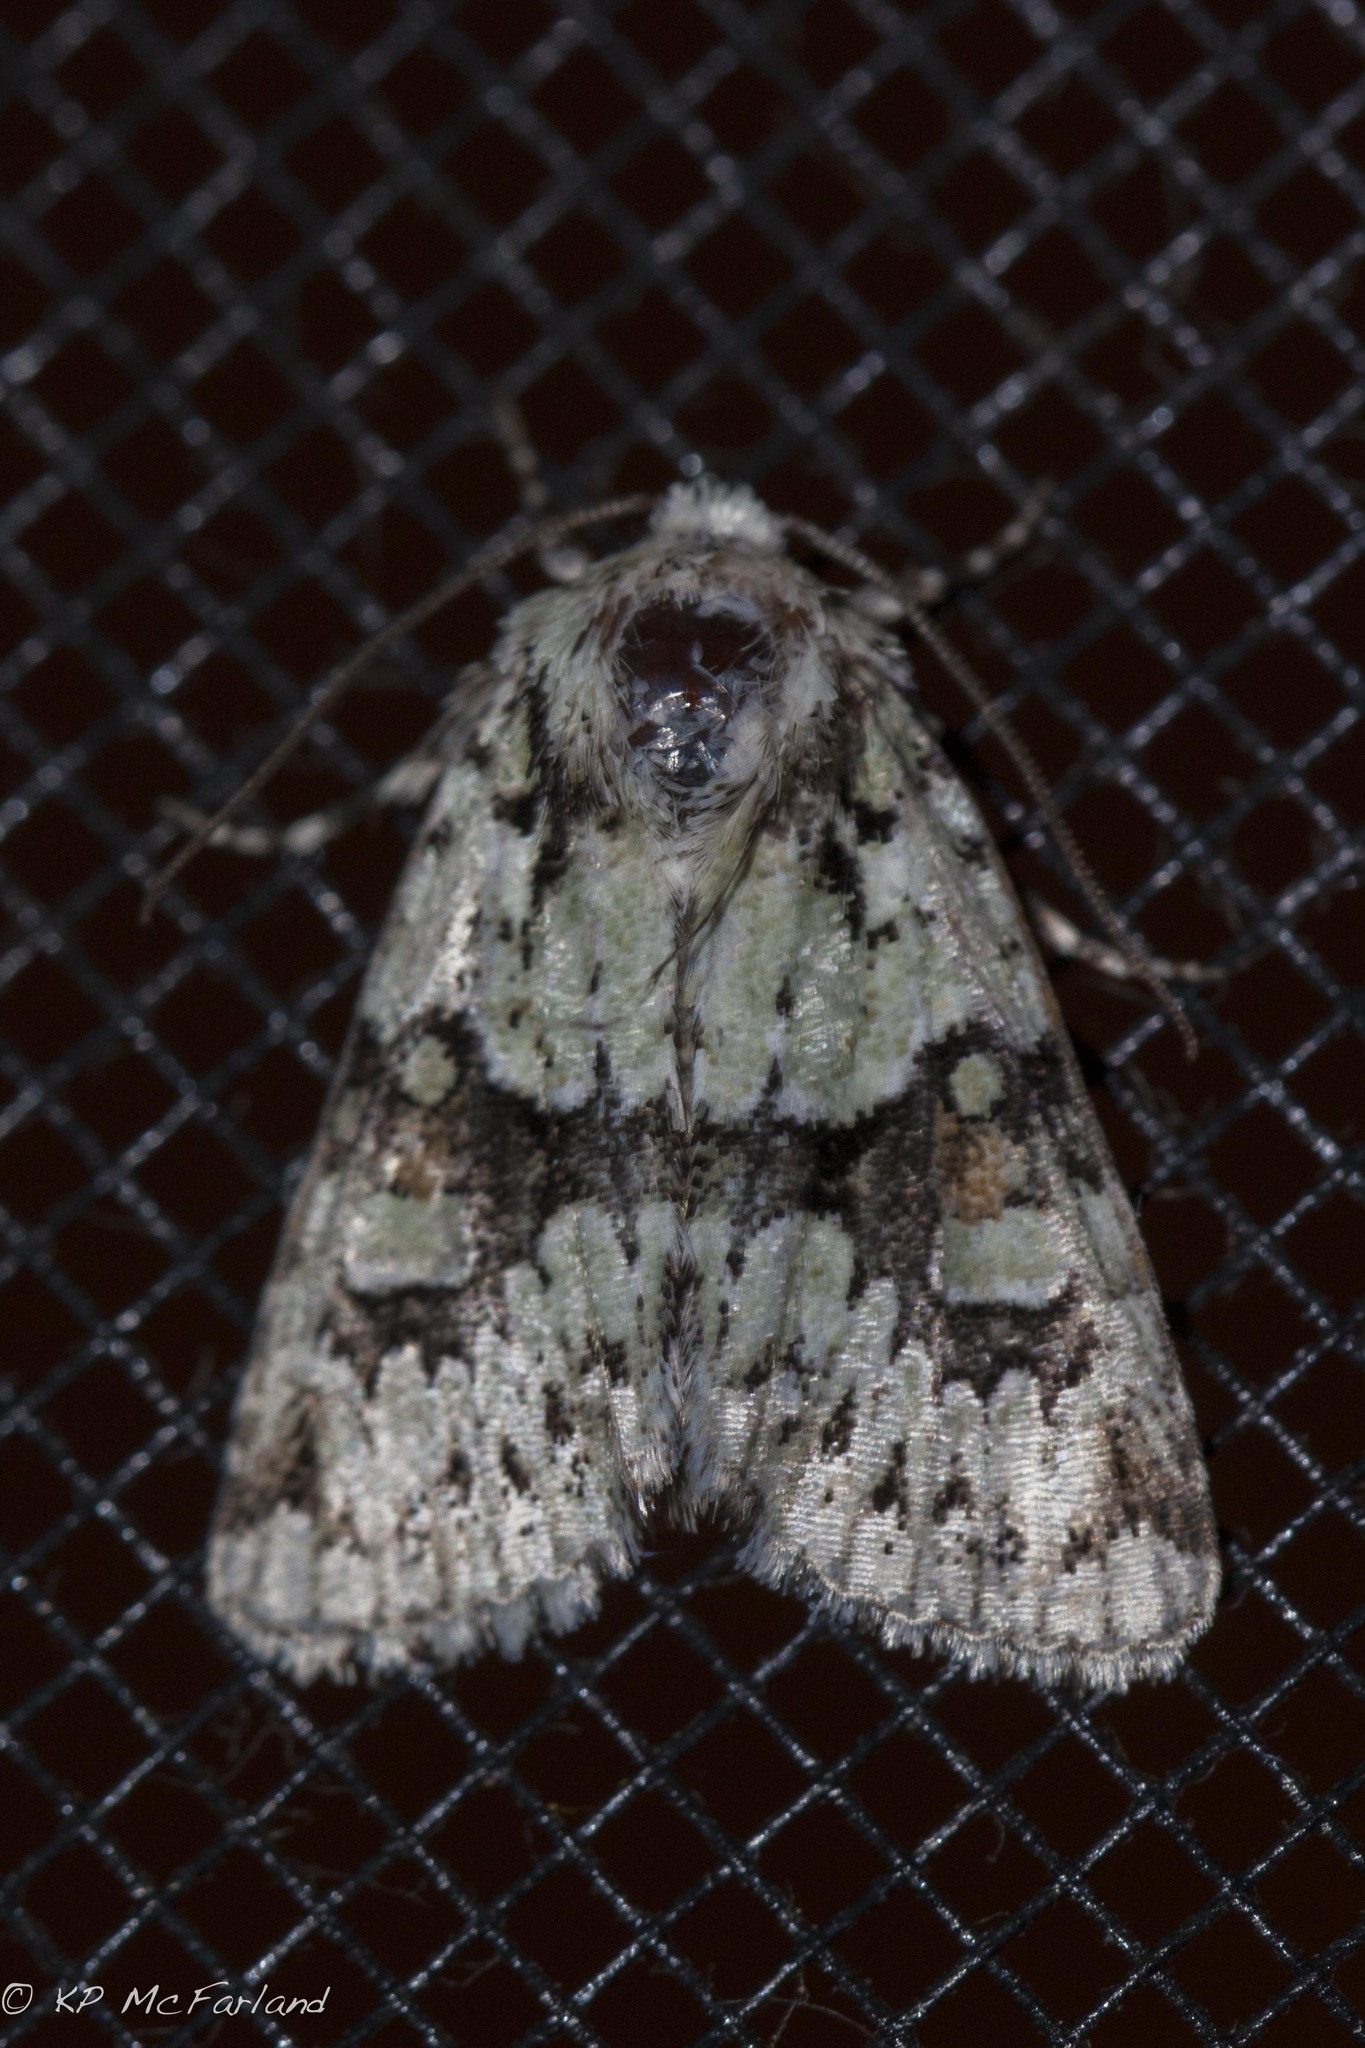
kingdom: Animalia
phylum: Arthropoda
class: Insecta
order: Lepidoptera
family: Noctuidae
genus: Lacinipolia
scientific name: Lacinipolia implicata
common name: Implicit arches
